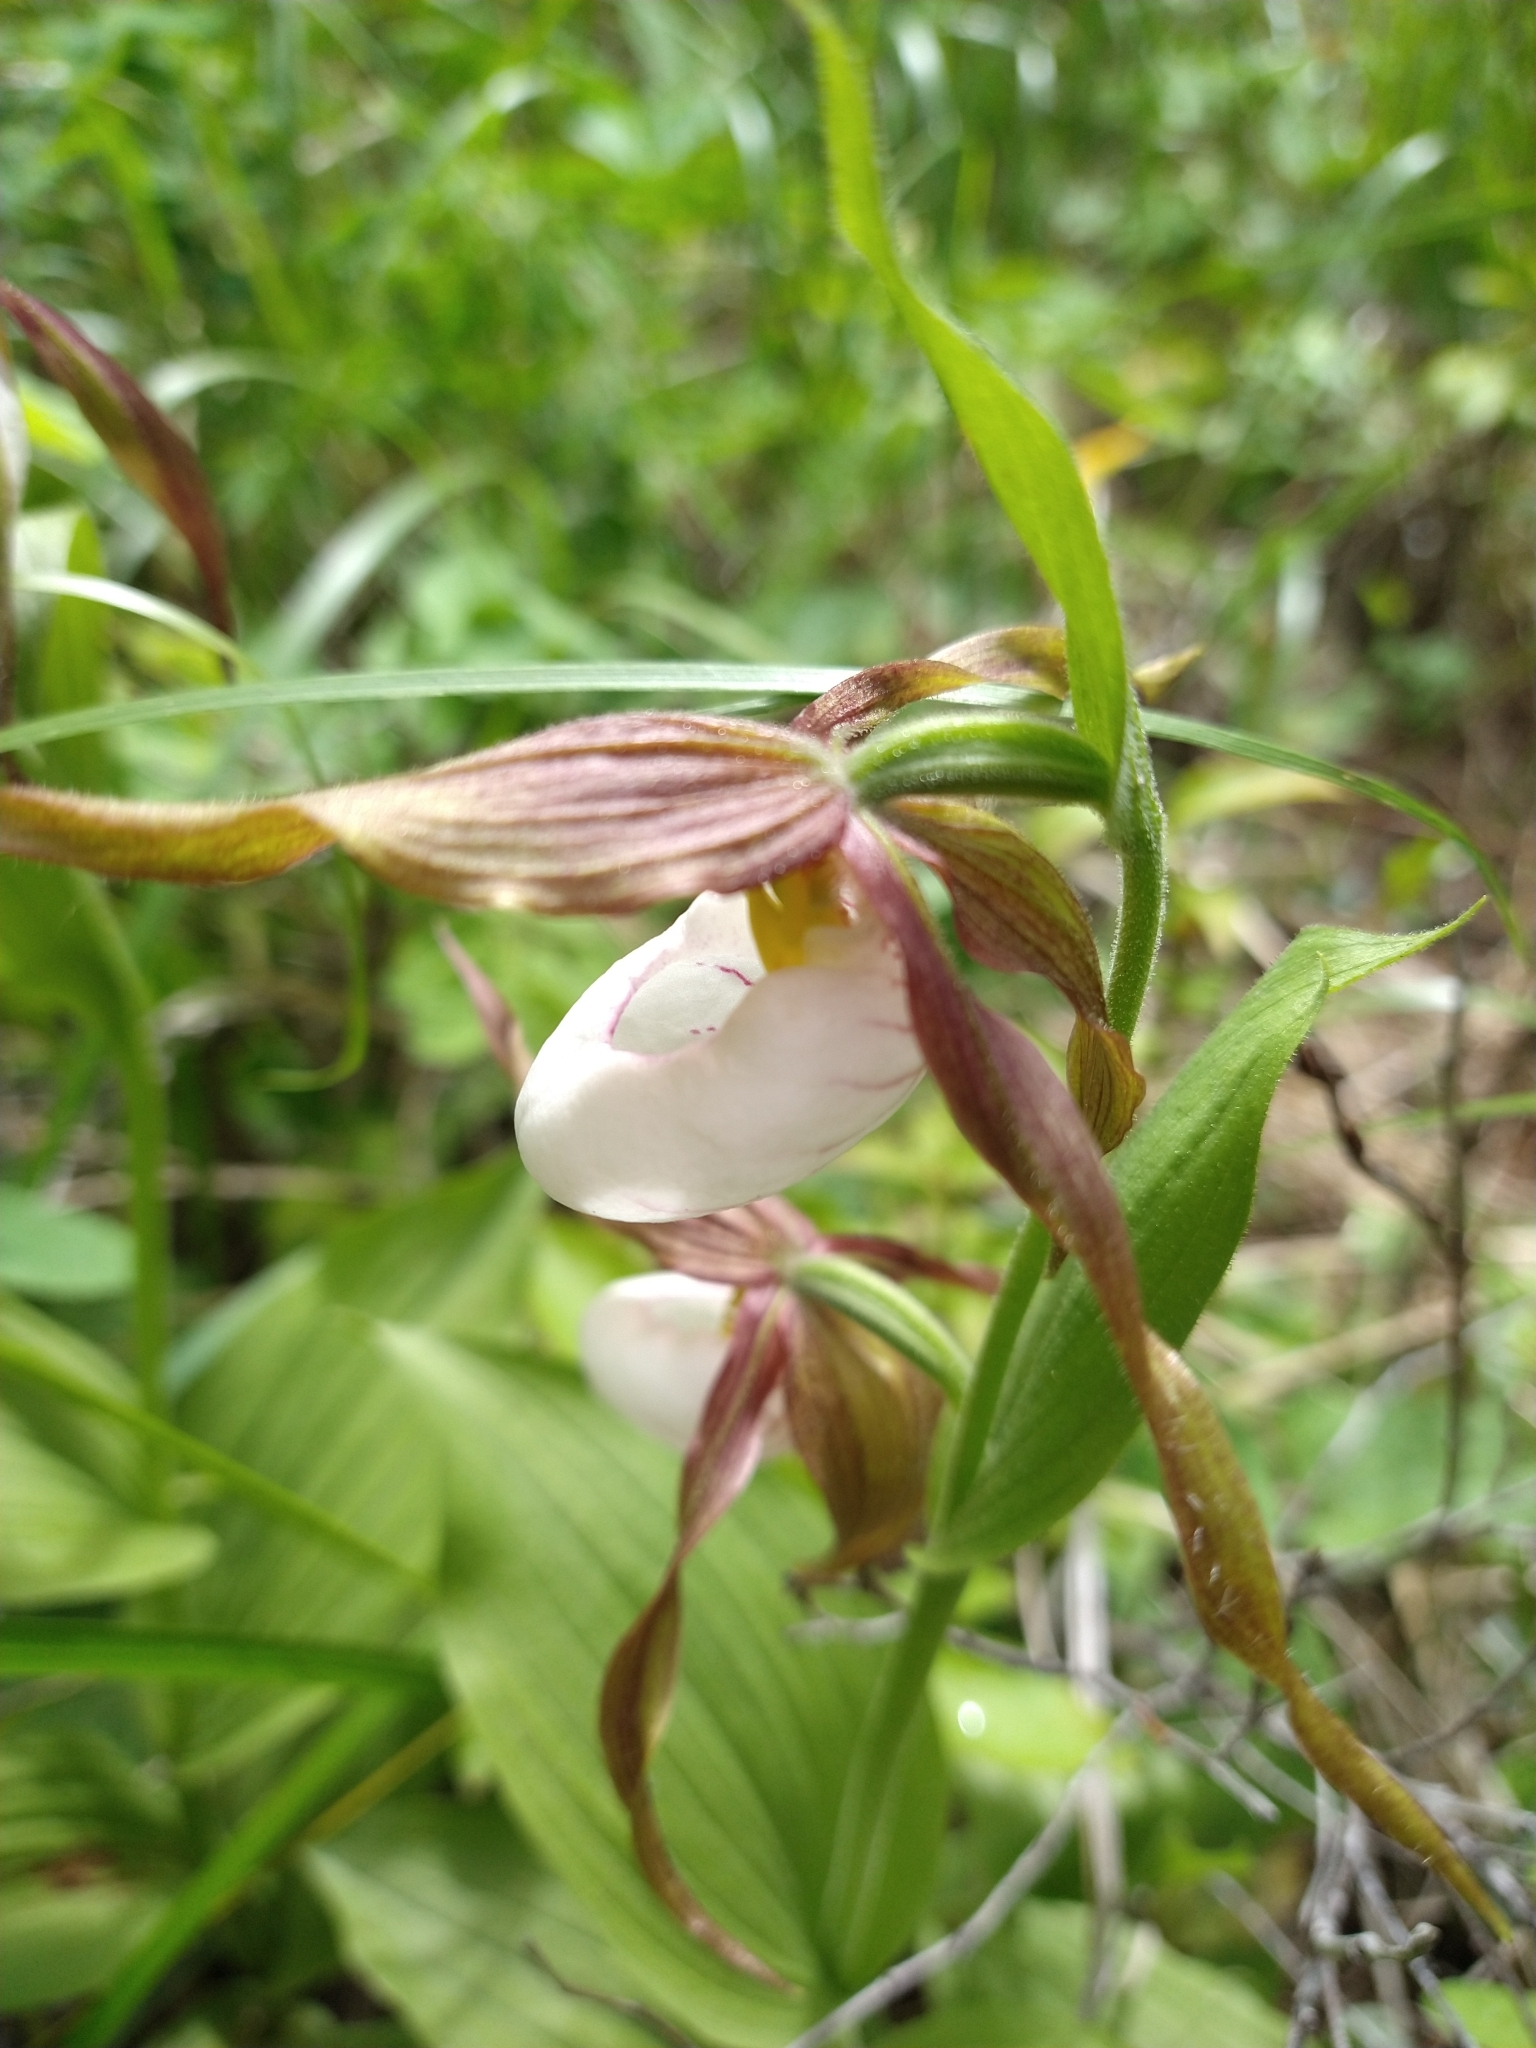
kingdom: Plantae
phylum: Tracheophyta
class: Liliopsida
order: Asparagales
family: Orchidaceae
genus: Cypripedium
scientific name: Cypripedium montanum
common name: Mountain lady's-slipper
